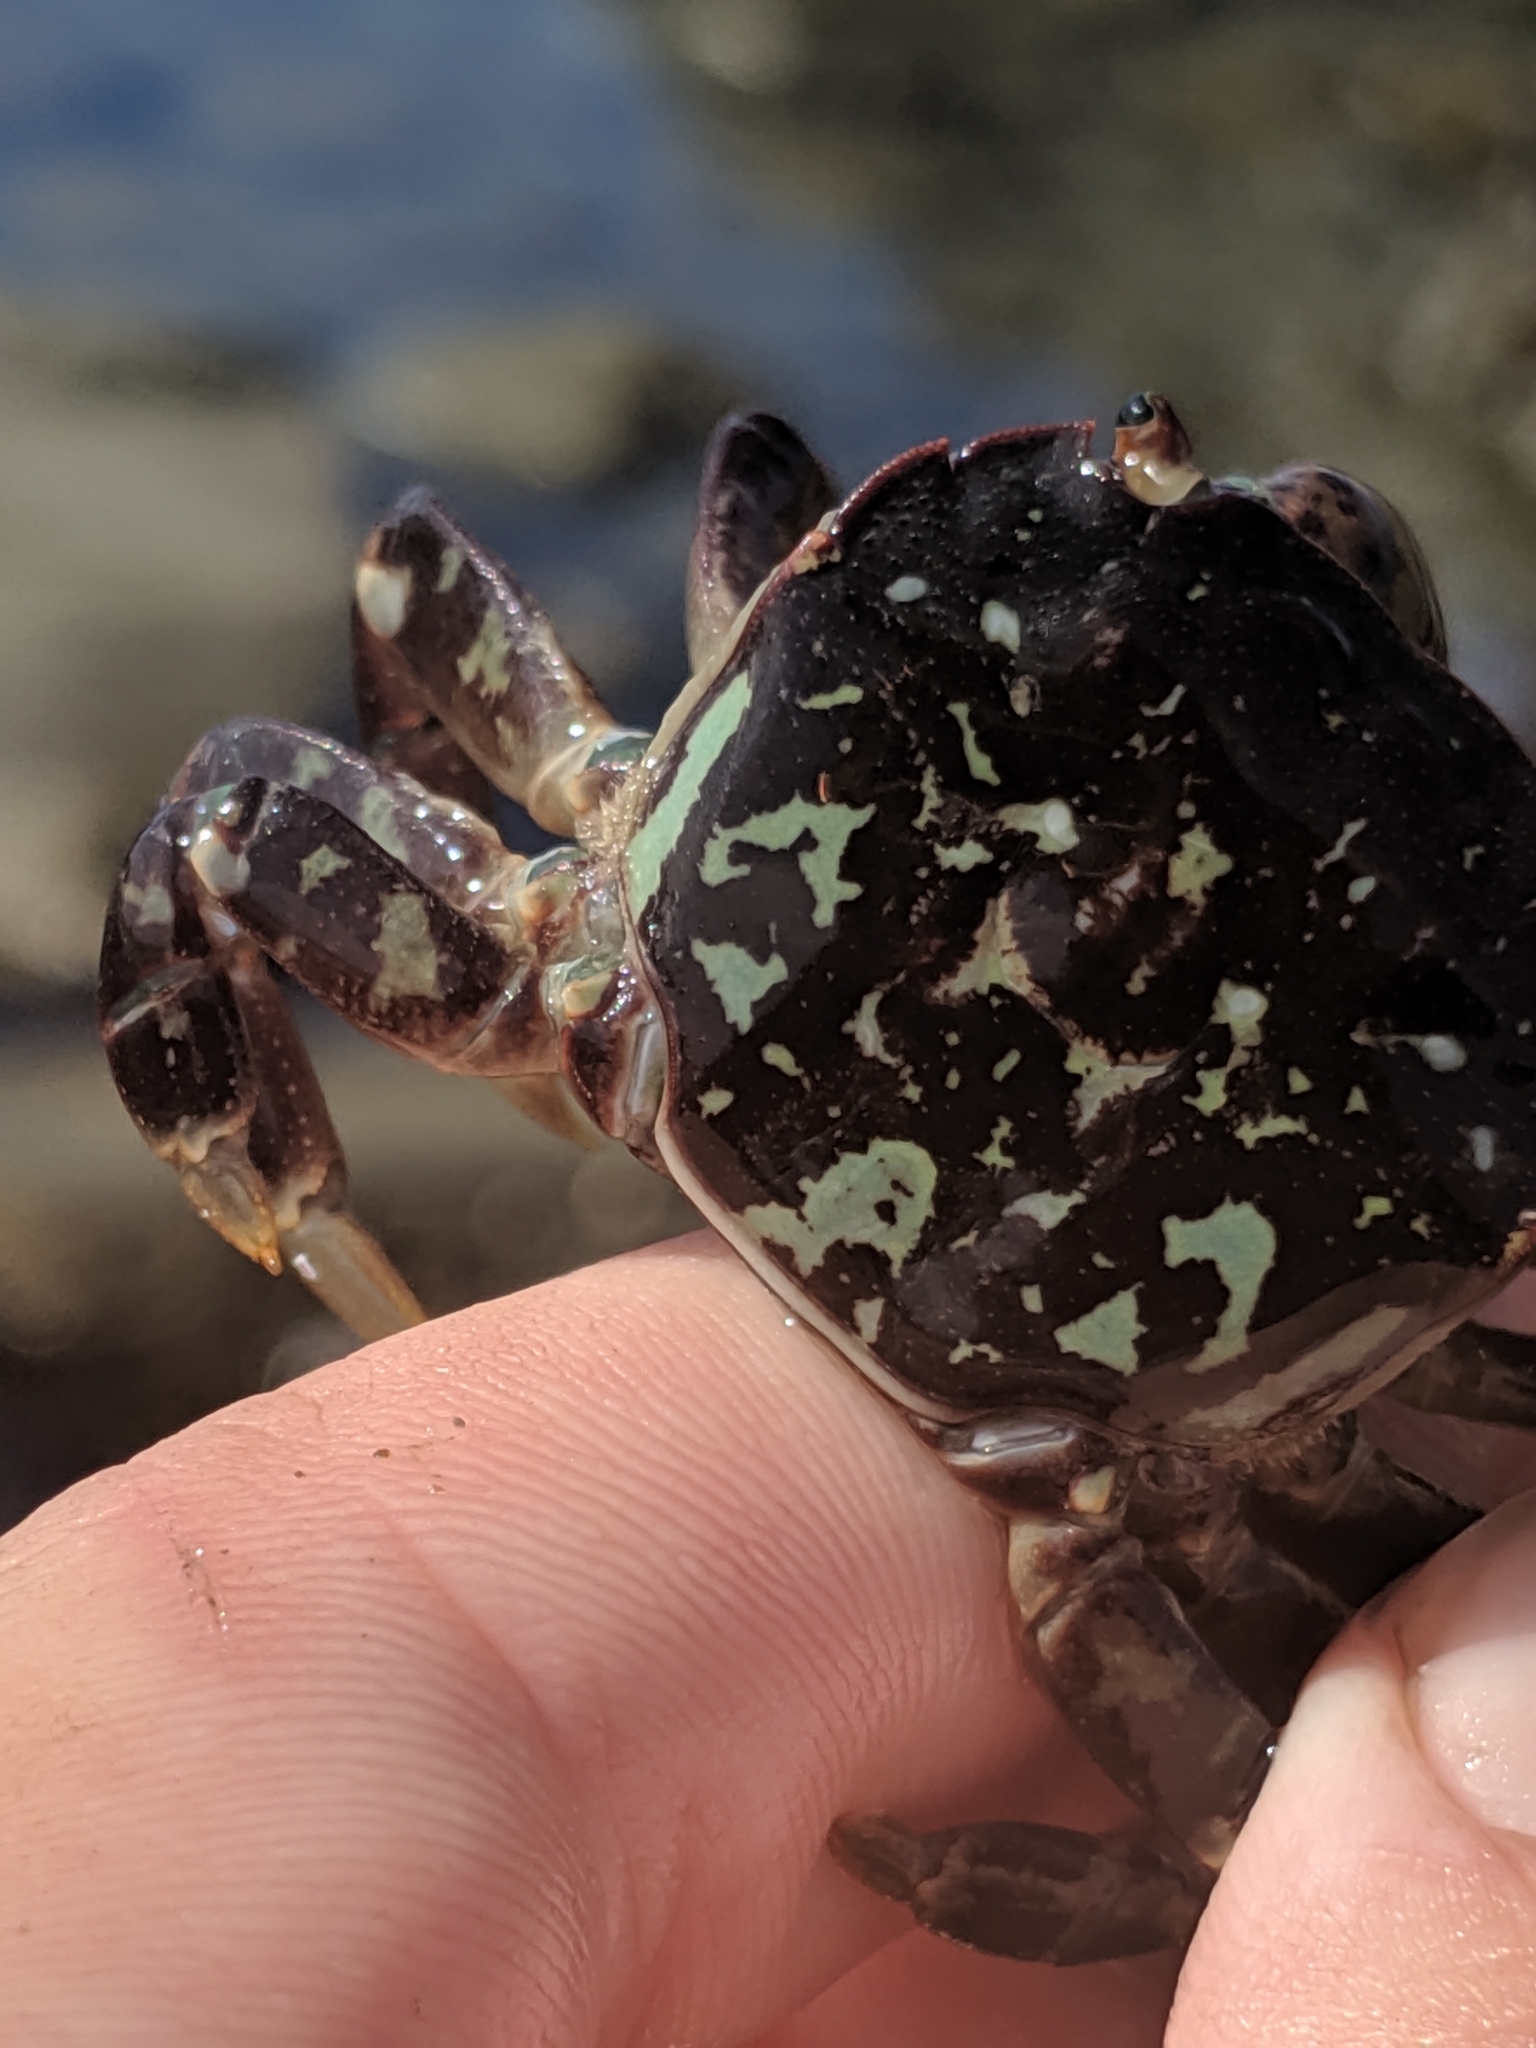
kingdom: Animalia
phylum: Arthropoda
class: Malacostraca
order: Decapoda
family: Varunidae
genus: Hemigrapsus
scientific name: Hemigrapsus nudus
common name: Purple shore crab
